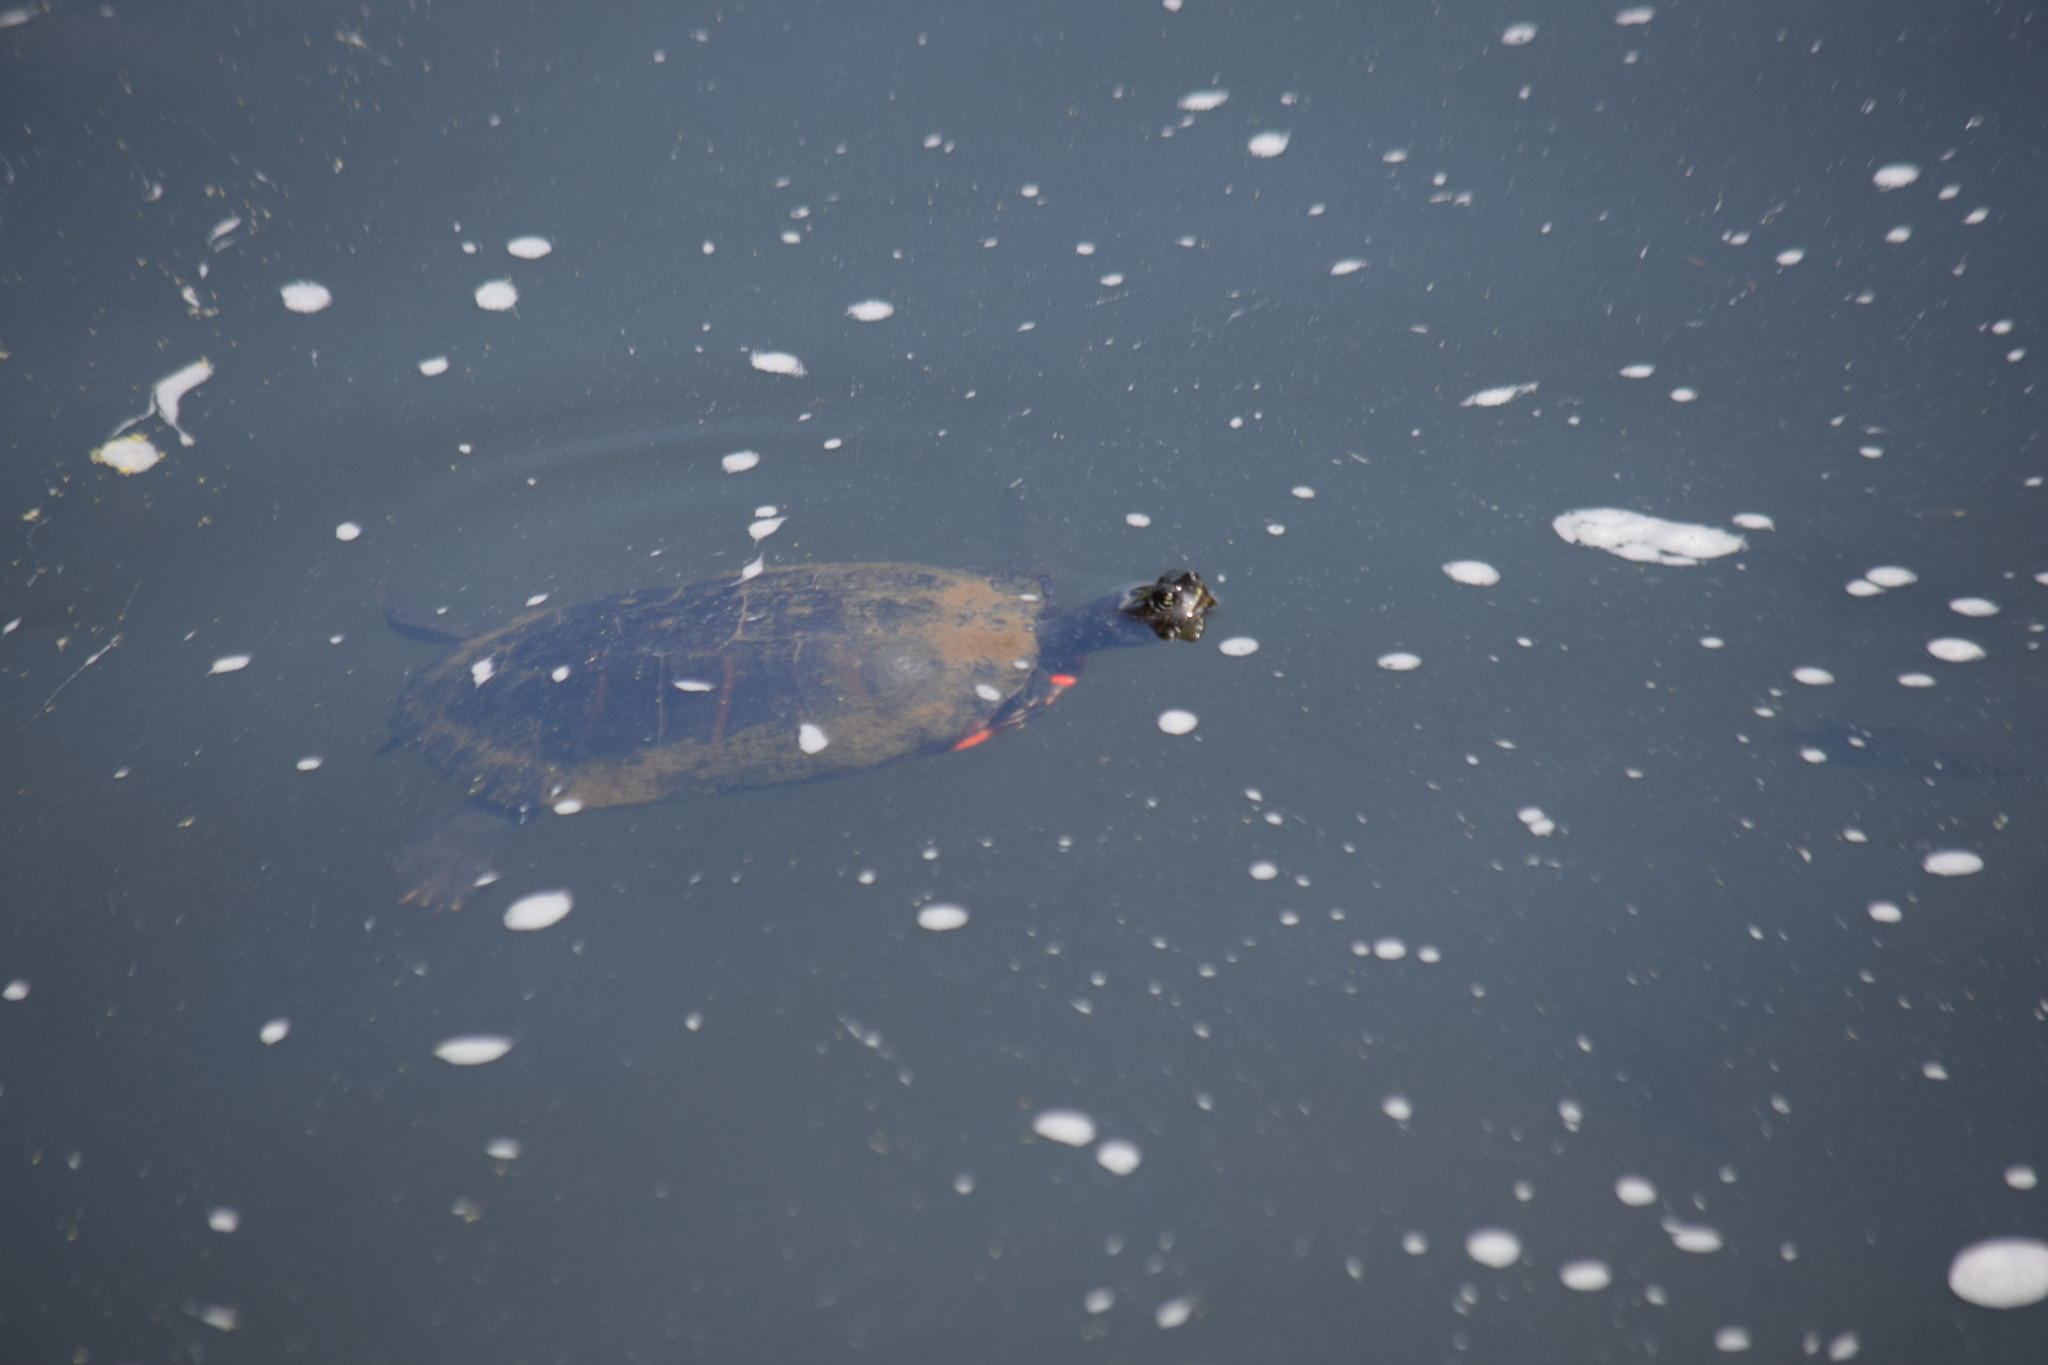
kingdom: Animalia
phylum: Chordata
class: Testudines
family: Emydidae
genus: Pseudemys
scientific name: Pseudemys rubriventris
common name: American red-bellied turtle
